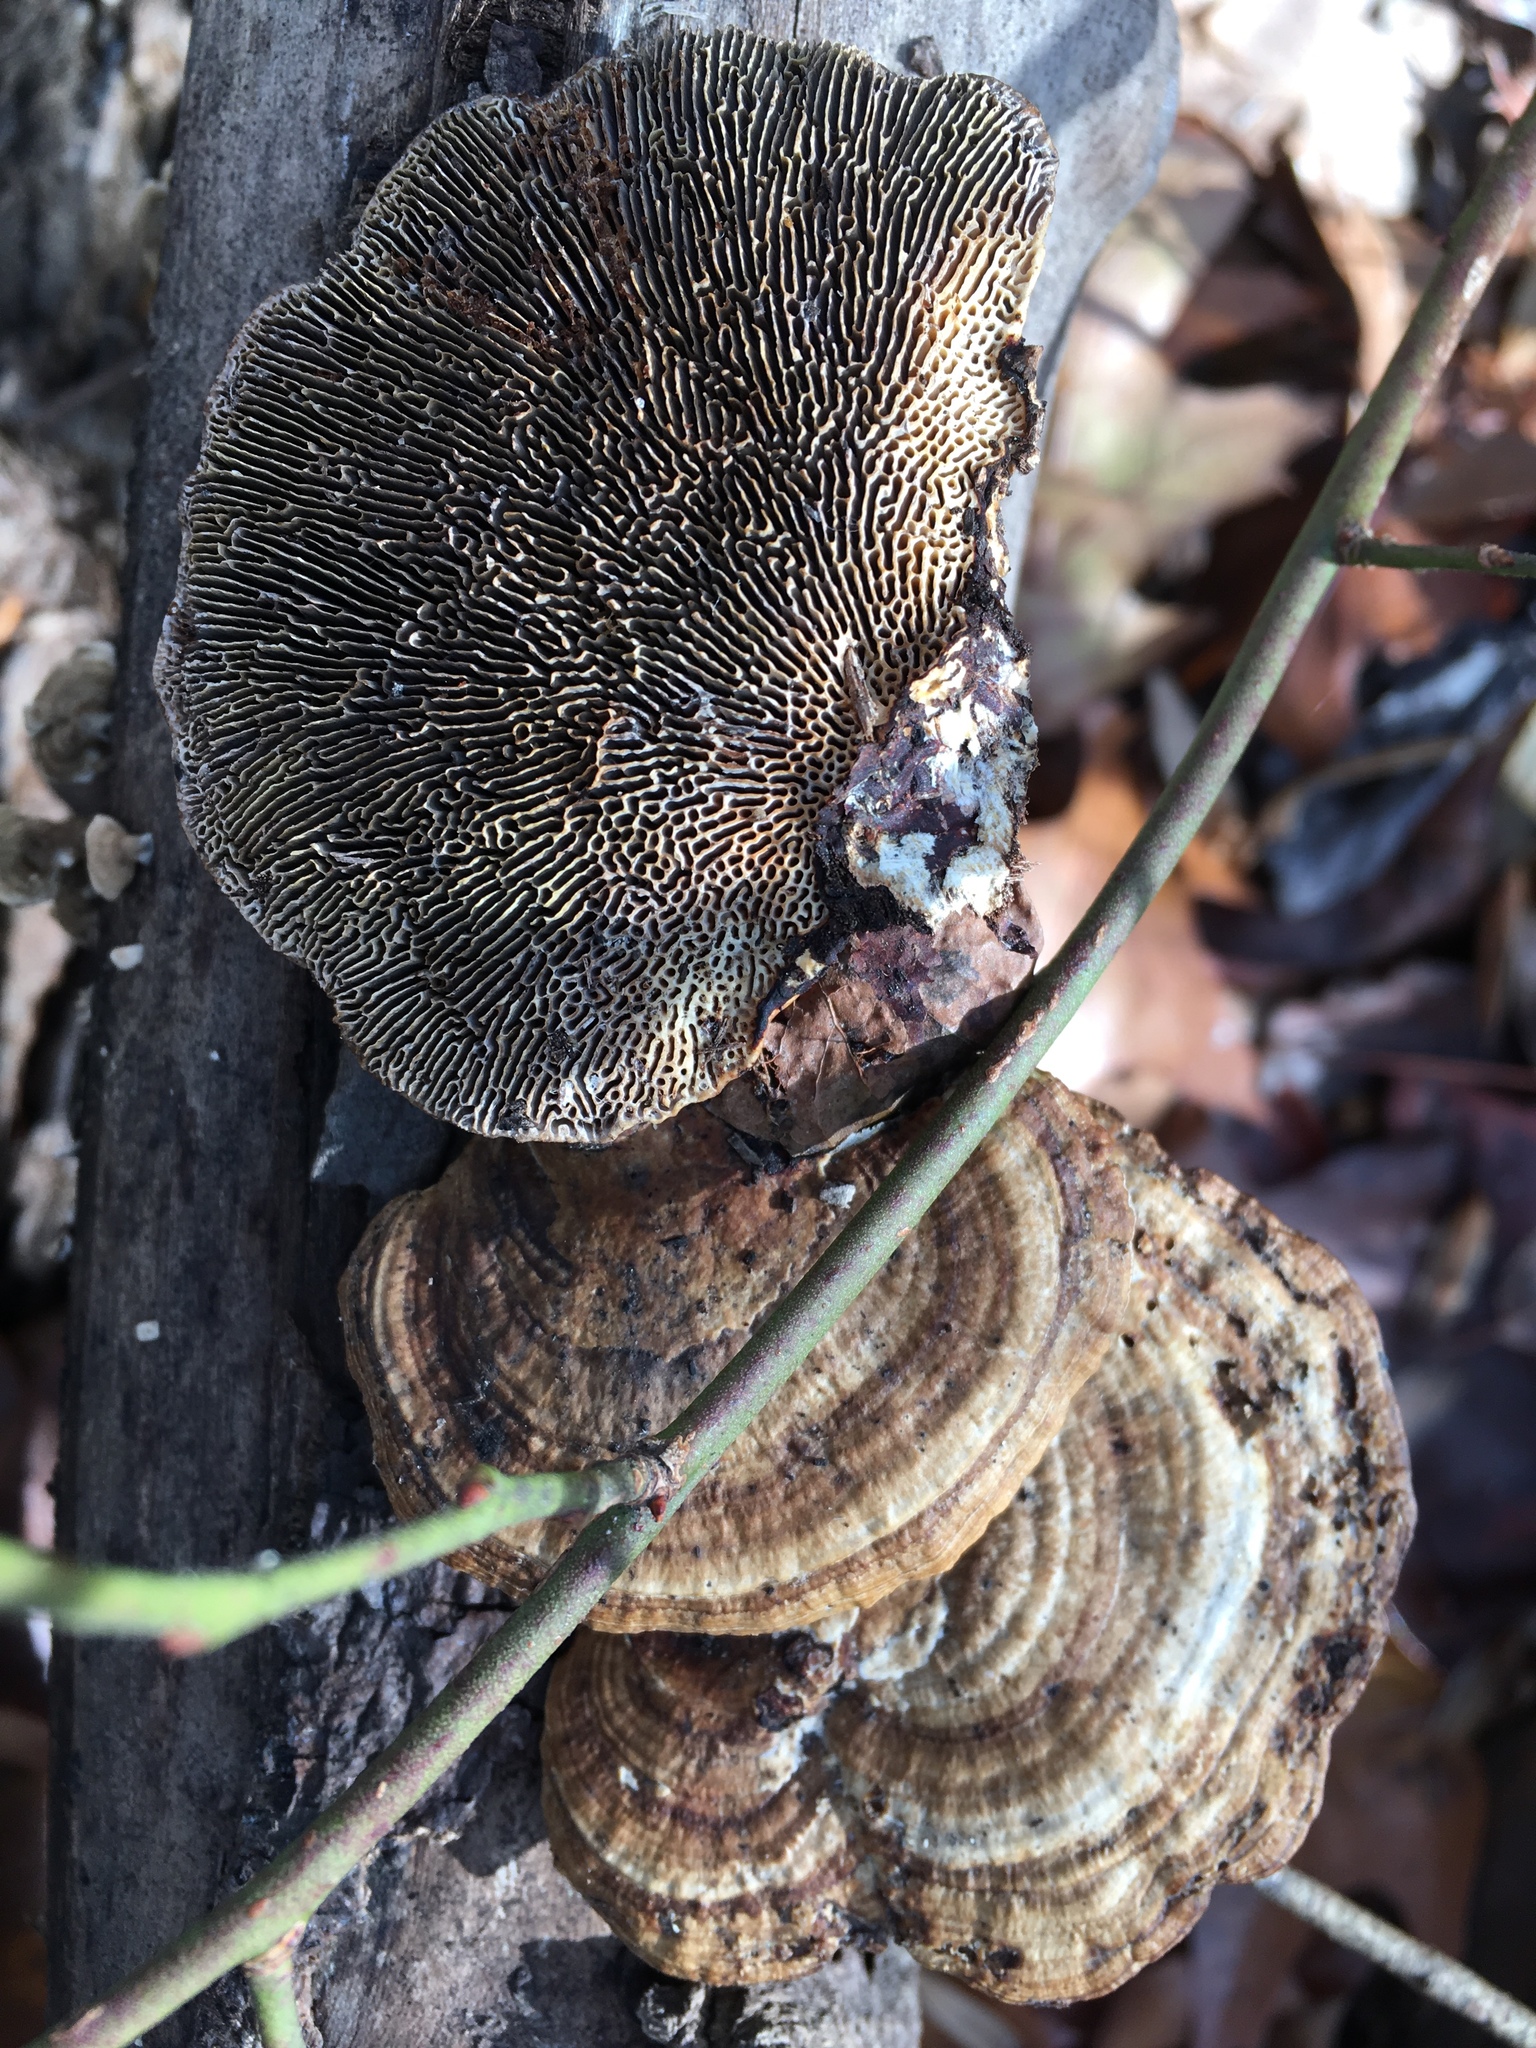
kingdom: Fungi
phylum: Basidiomycota
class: Agaricomycetes
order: Polyporales
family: Polyporaceae
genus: Daedaleopsis
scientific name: Daedaleopsis confragosa
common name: Blushing bracket
